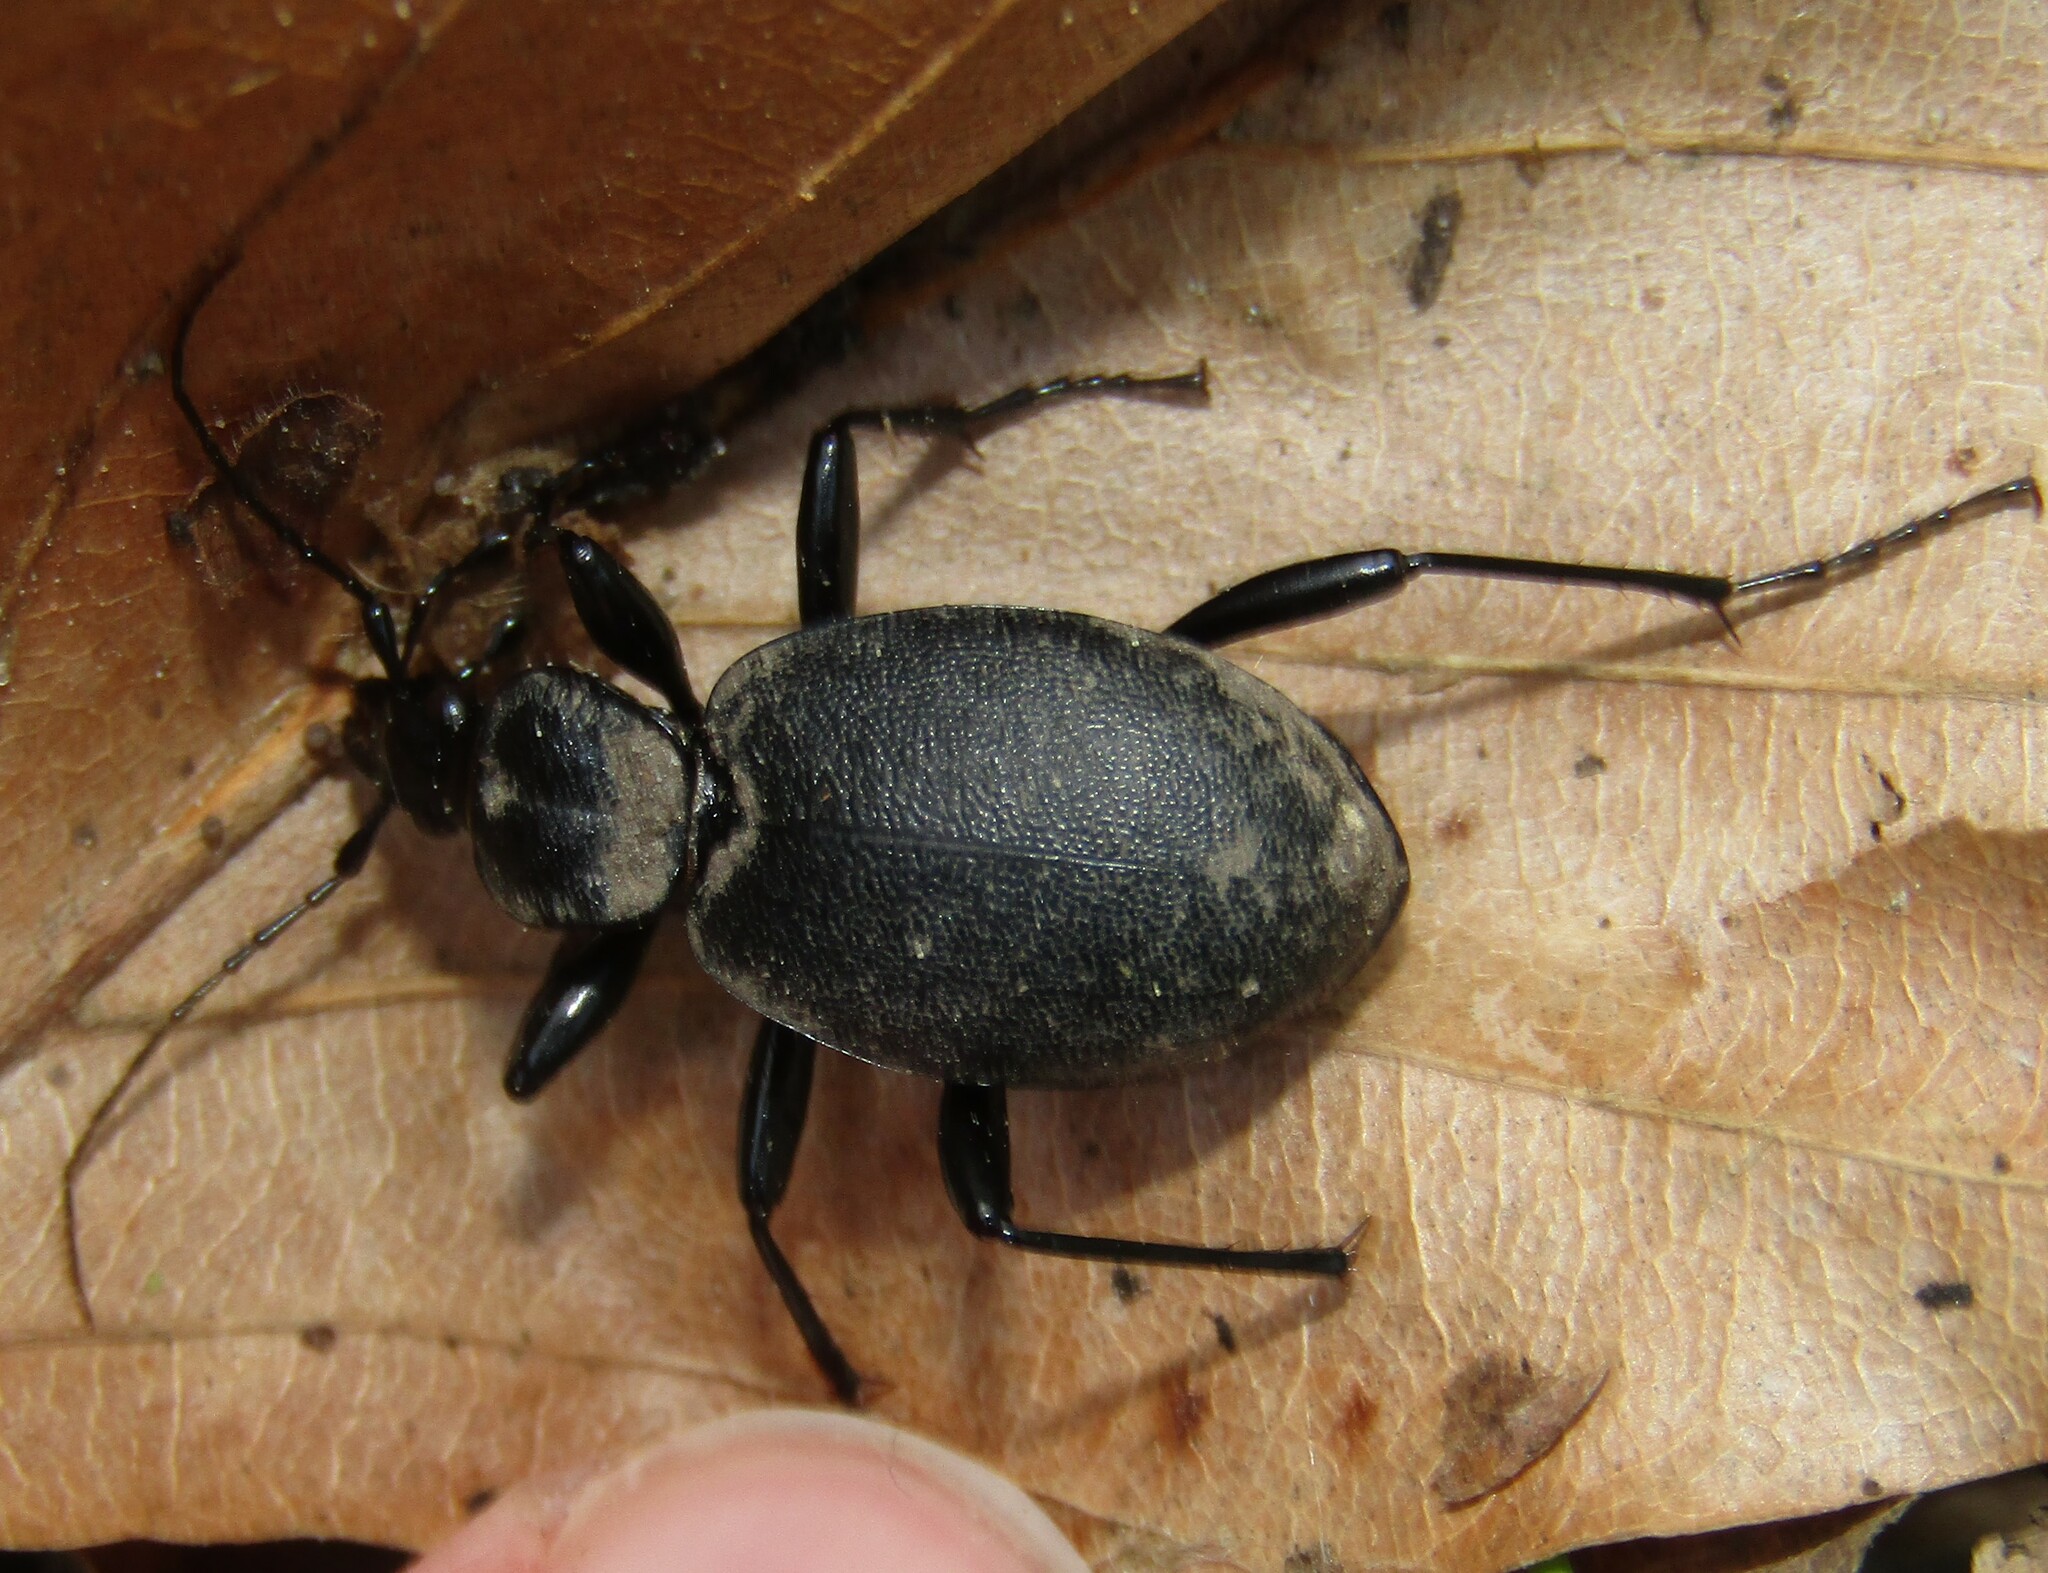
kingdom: Animalia
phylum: Arthropoda
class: Insecta
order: Coleoptera
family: Carabidae
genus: Cychrus
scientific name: Cychrus caraboides
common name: Snail hunter
